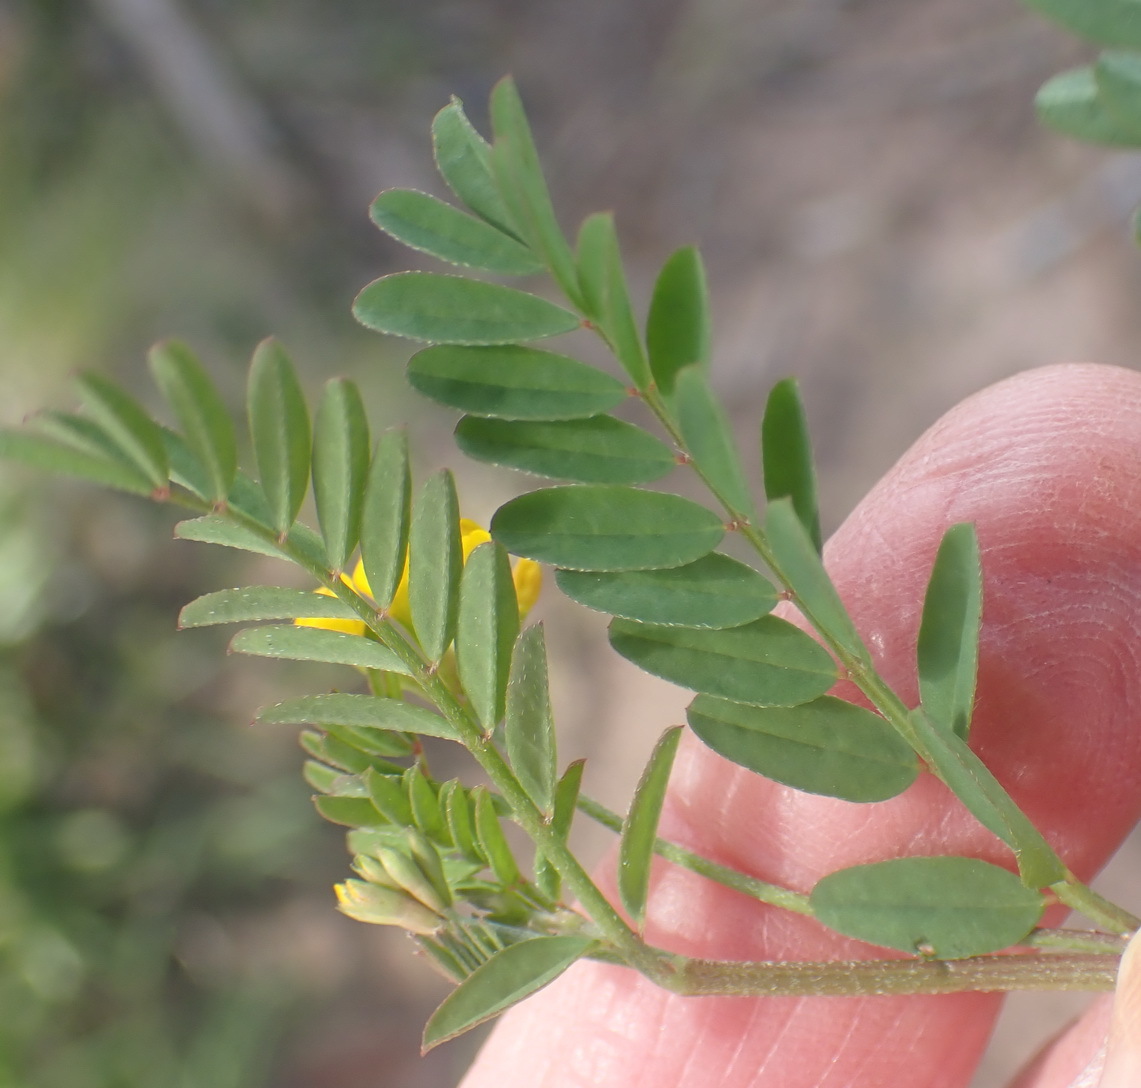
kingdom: Plantae
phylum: Tracheophyta
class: Magnoliopsida
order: Fabales
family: Fabaceae
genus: Ornithopus
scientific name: Ornithopus pinnatus
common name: Orange bird's-foot
